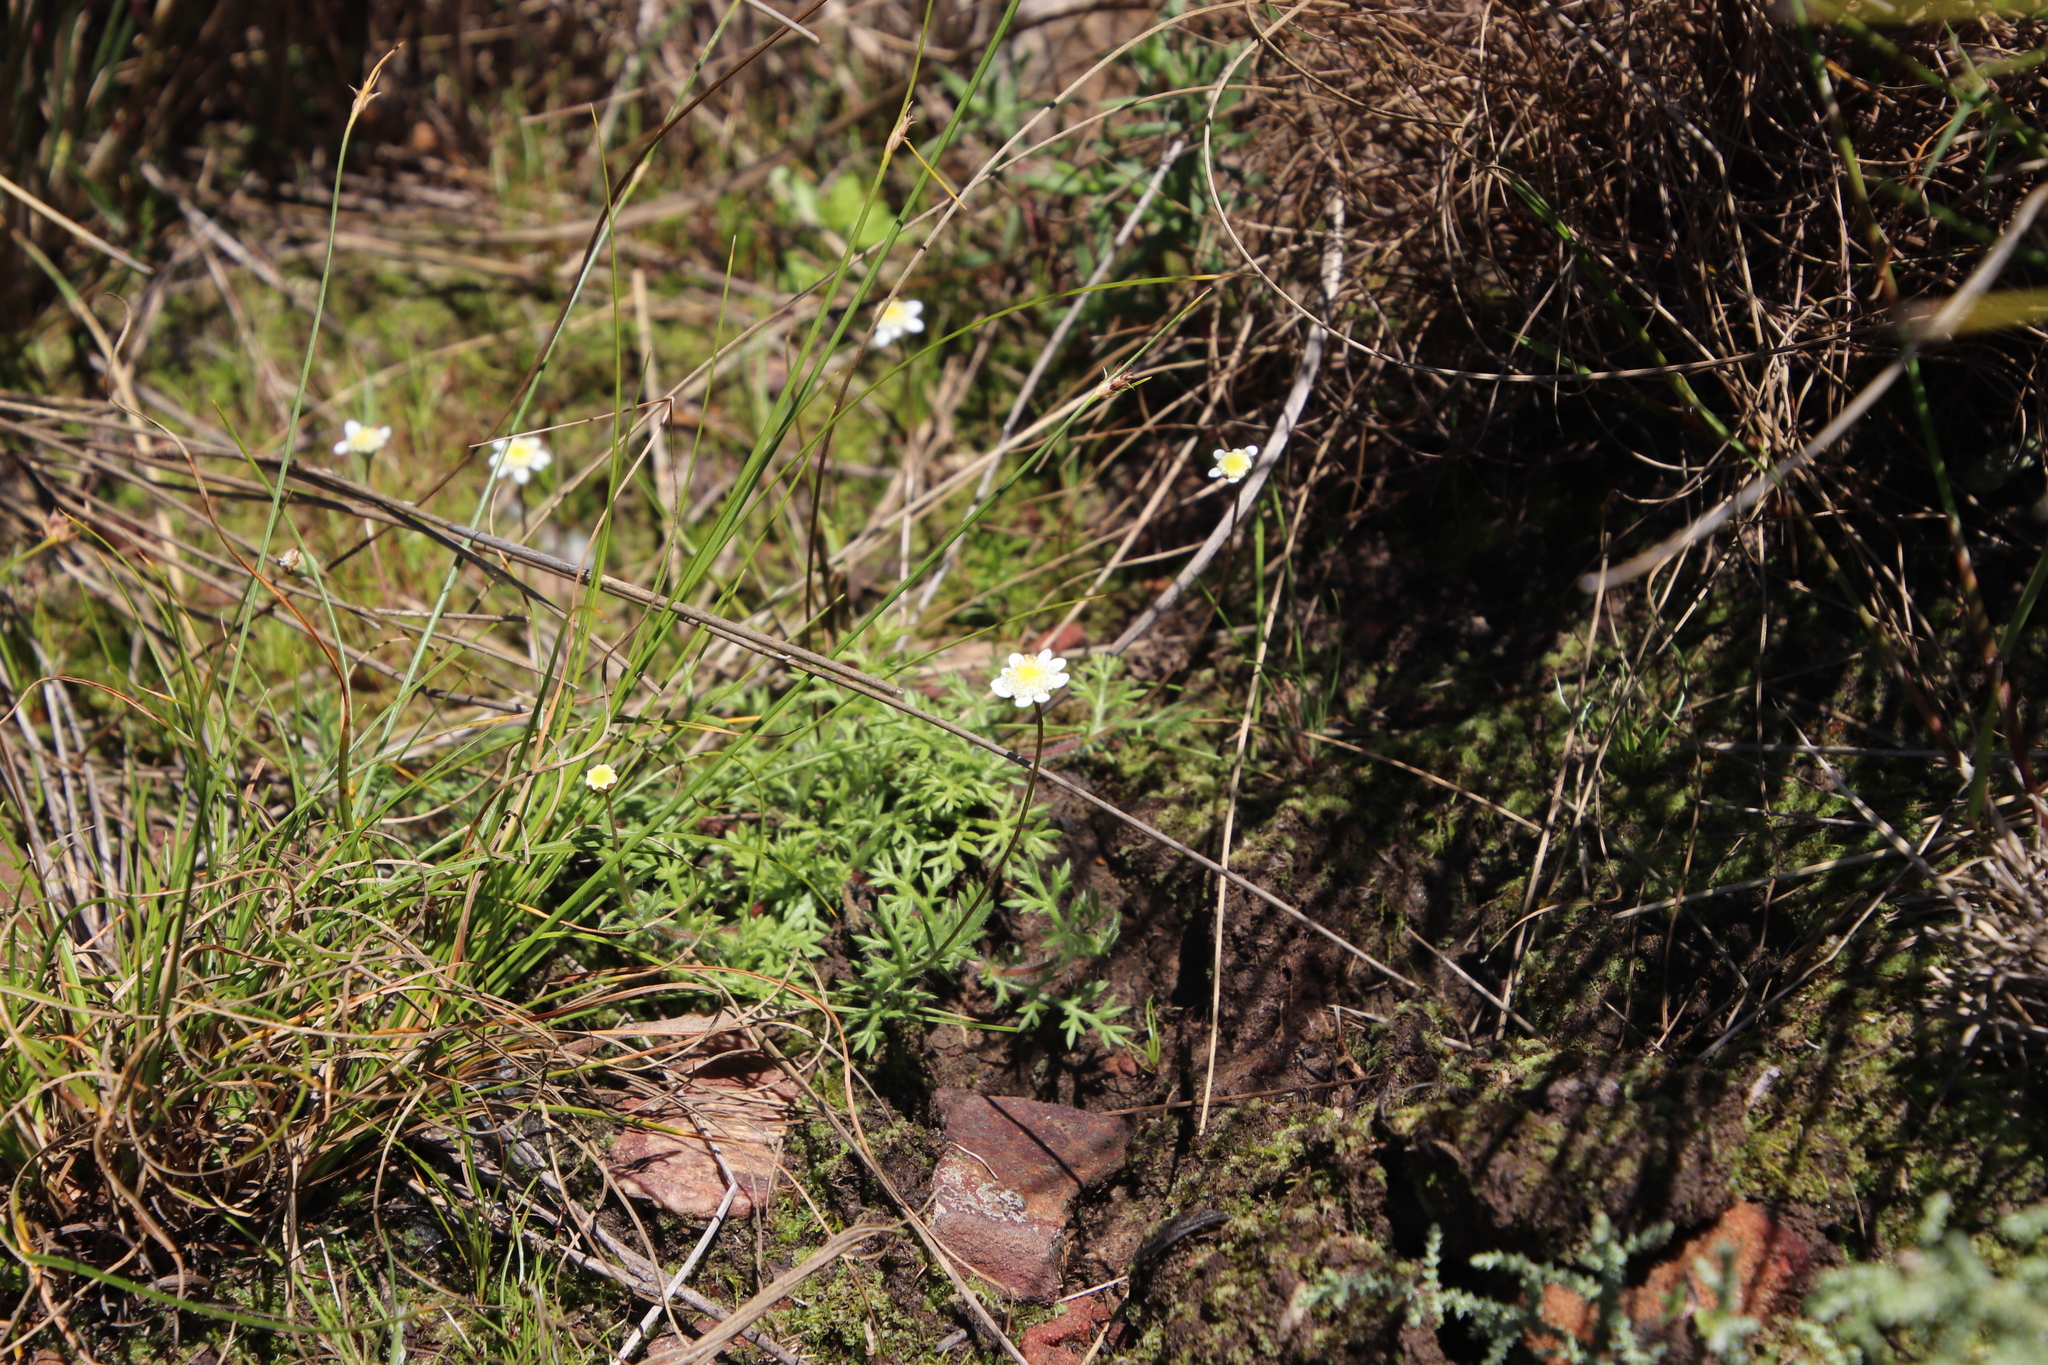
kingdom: Plantae
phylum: Tracheophyta
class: Magnoliopsida
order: Asterales
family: Asteraceae
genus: Cotula
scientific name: Cotula perennans
